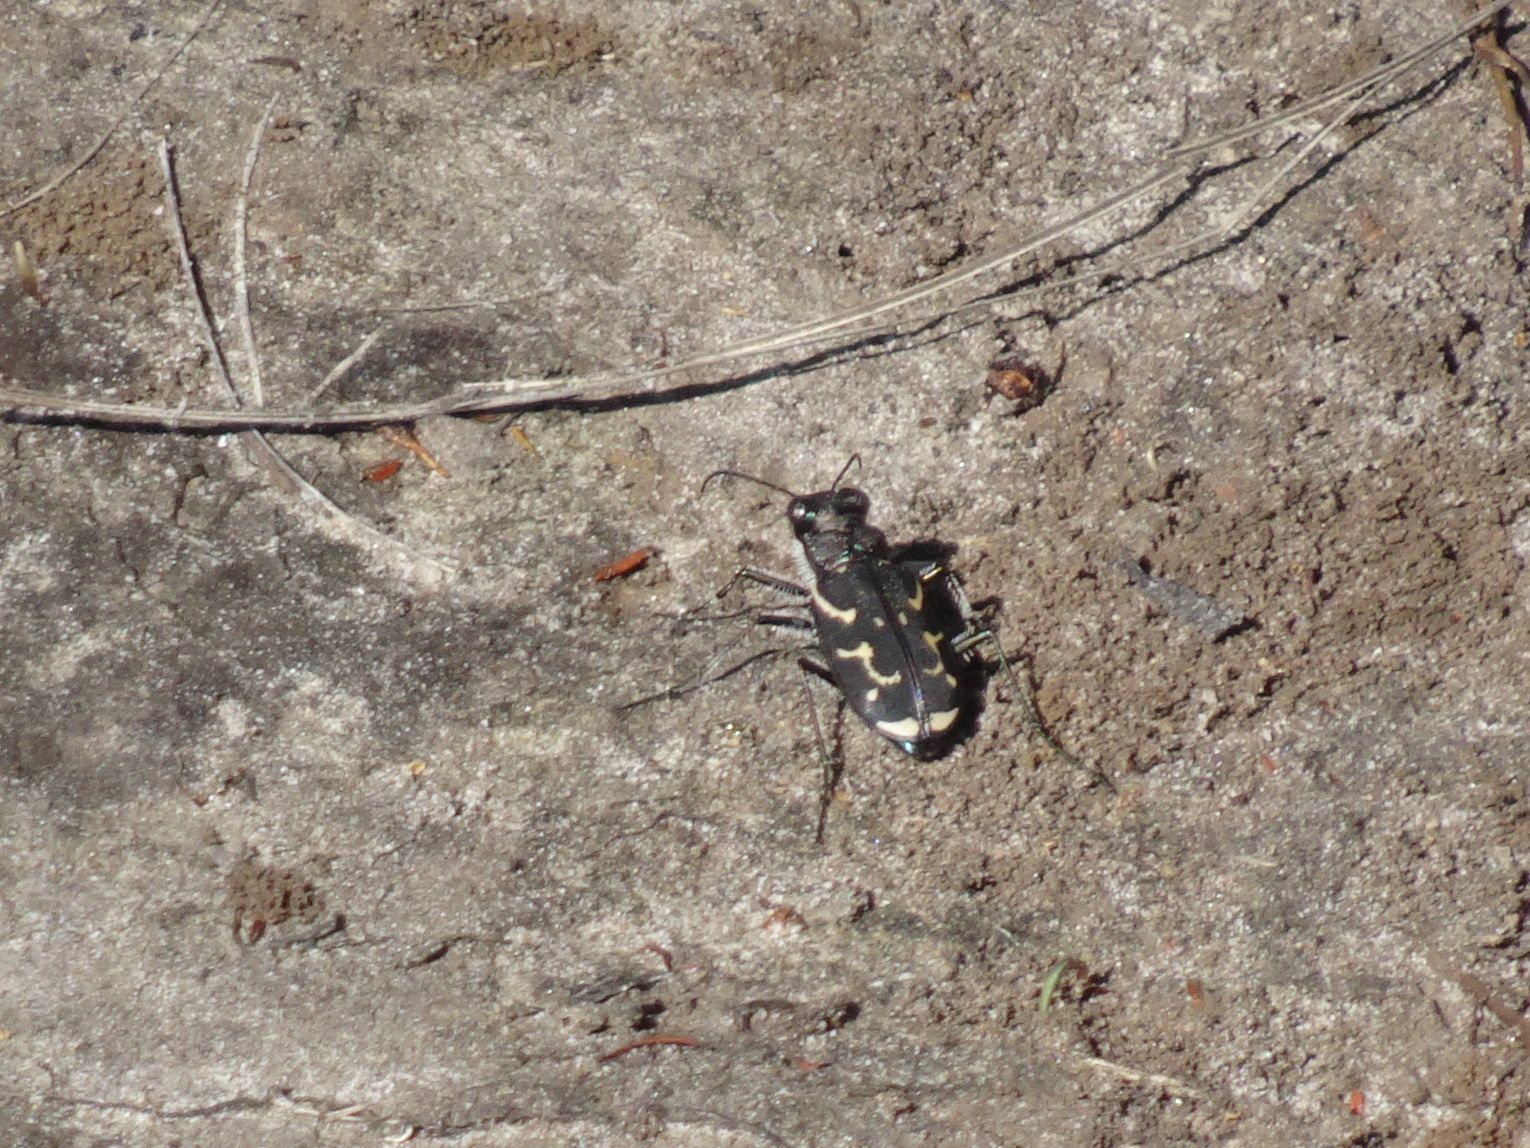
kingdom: Animalia
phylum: Arthropoda
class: Insecta
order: Coleoptera
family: Carabidae
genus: Cicindela
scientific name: Cicindela lurida
